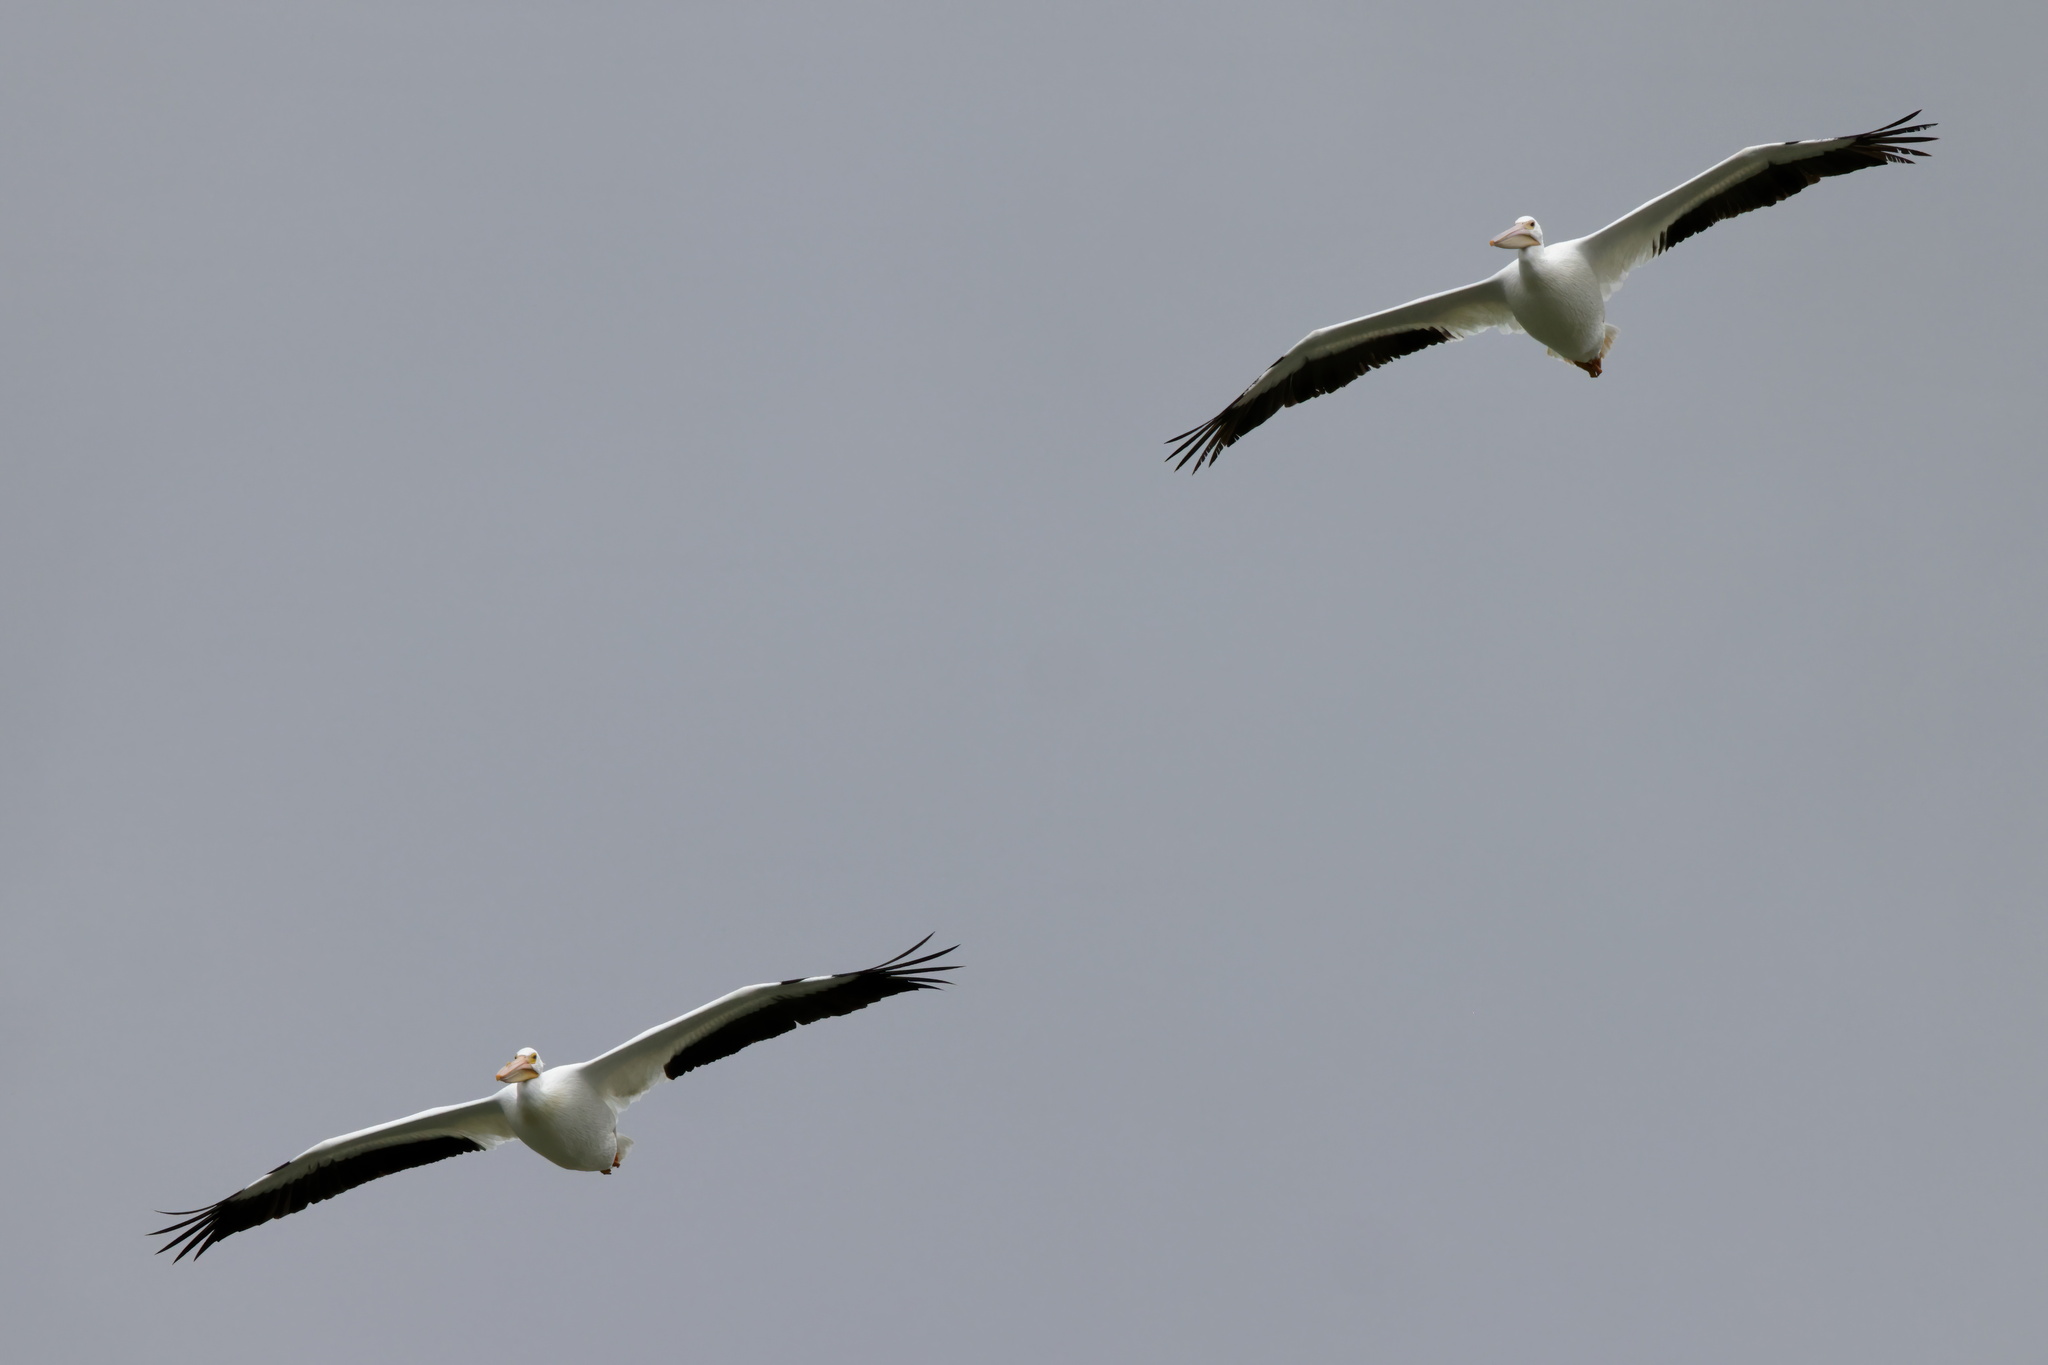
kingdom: Animalia
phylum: Chordata
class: Aves
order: Pelecaniformes
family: Pelecanidae
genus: Pelecanus
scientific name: Pelecanus erythrorhynchos
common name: American white pelican
